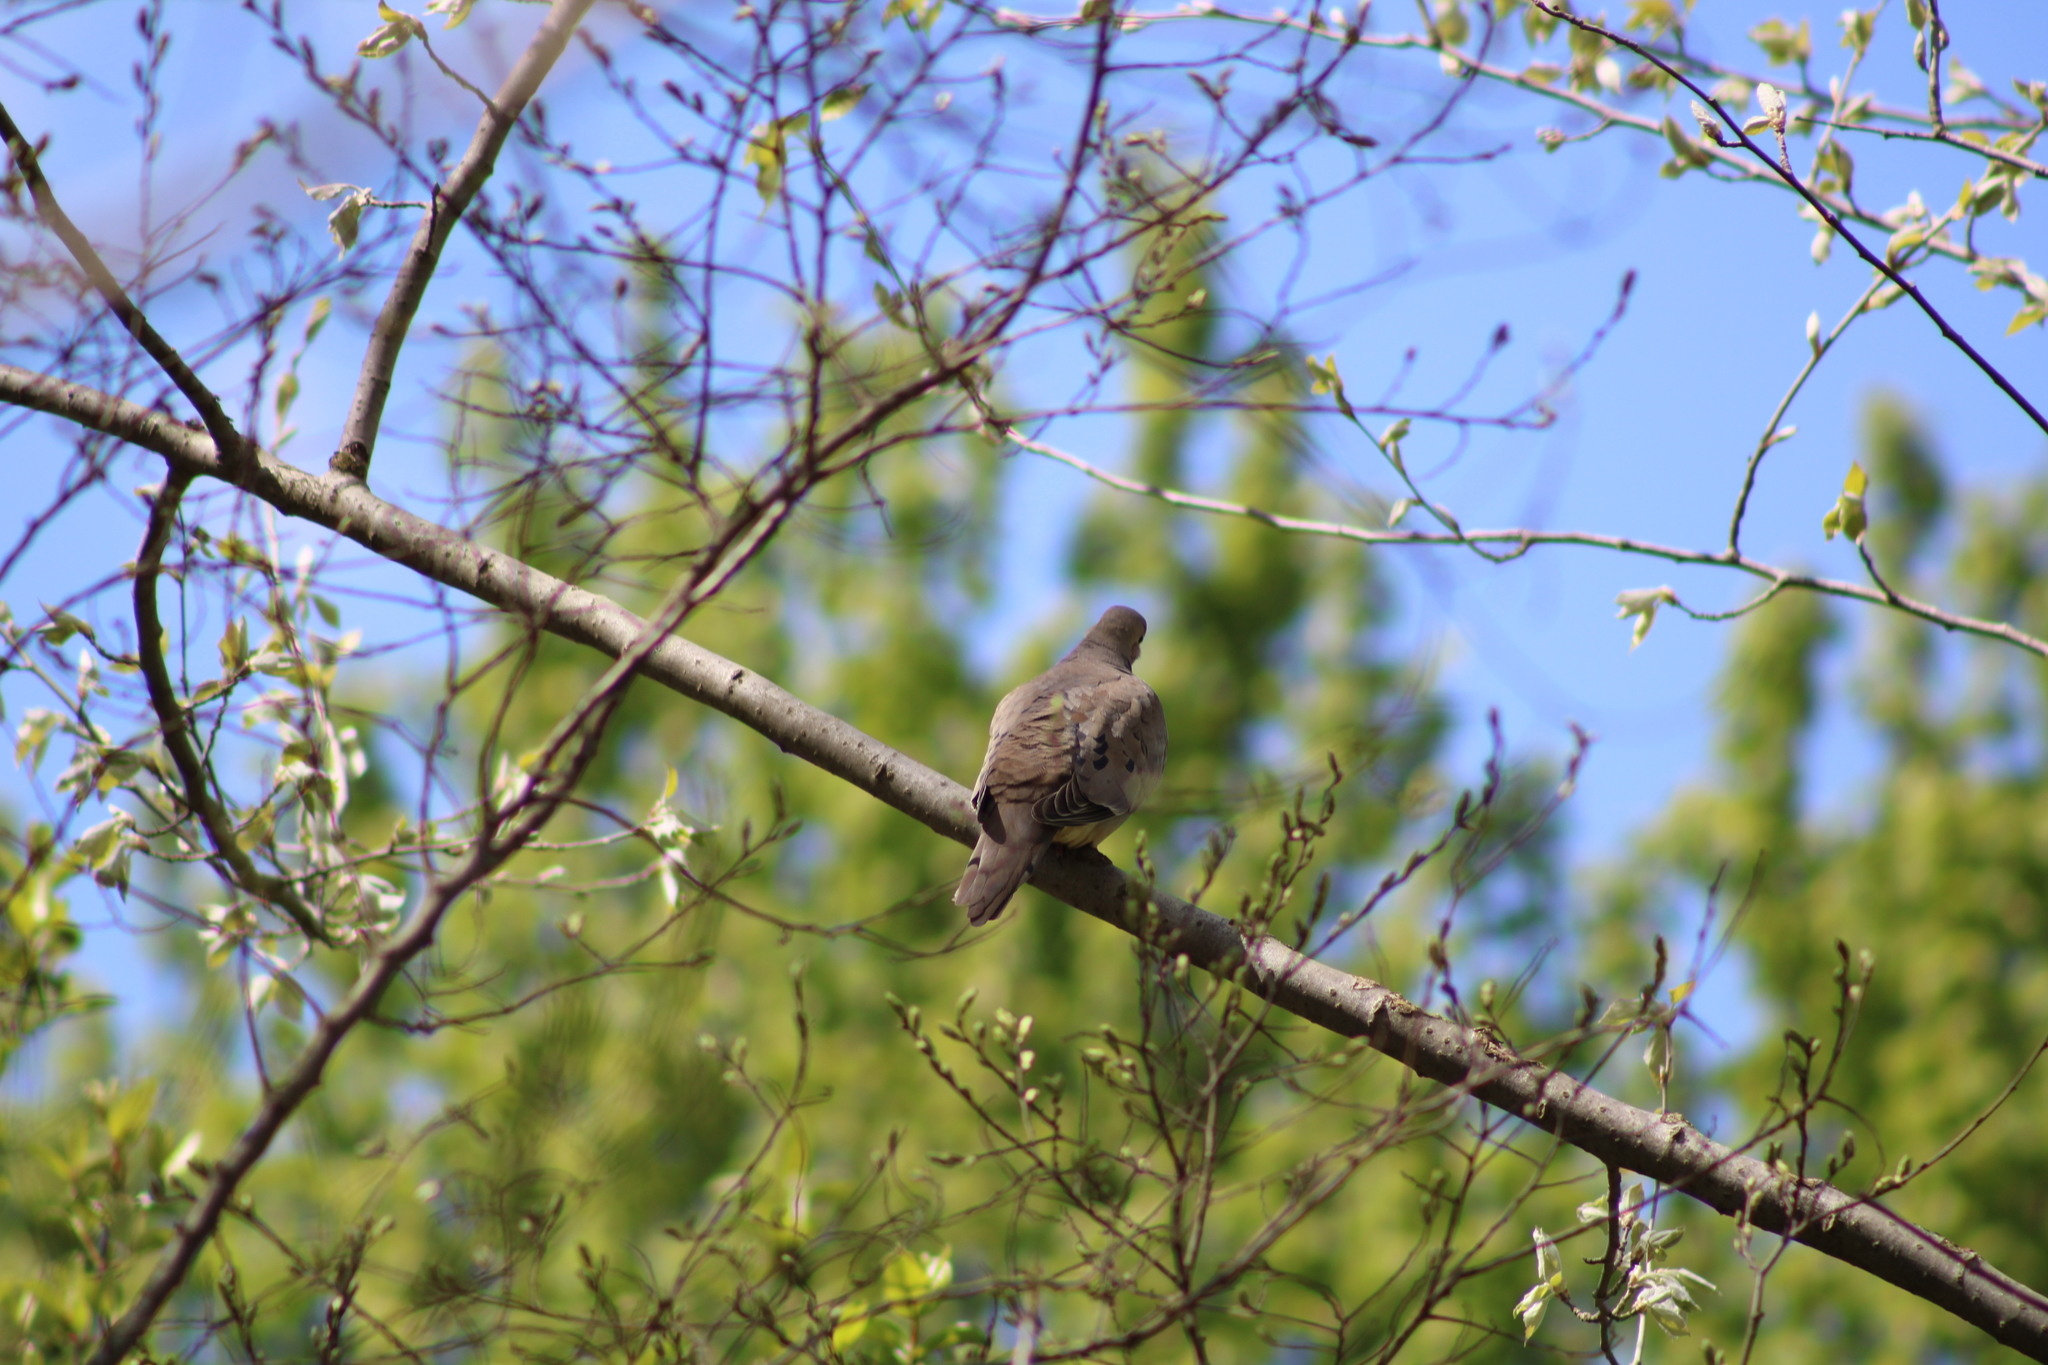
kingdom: Animalia
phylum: Chordata
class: Aves
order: Columbiformes
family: Columbidae
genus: Zenaida
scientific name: Zenaida macroura
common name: Mourning dove
